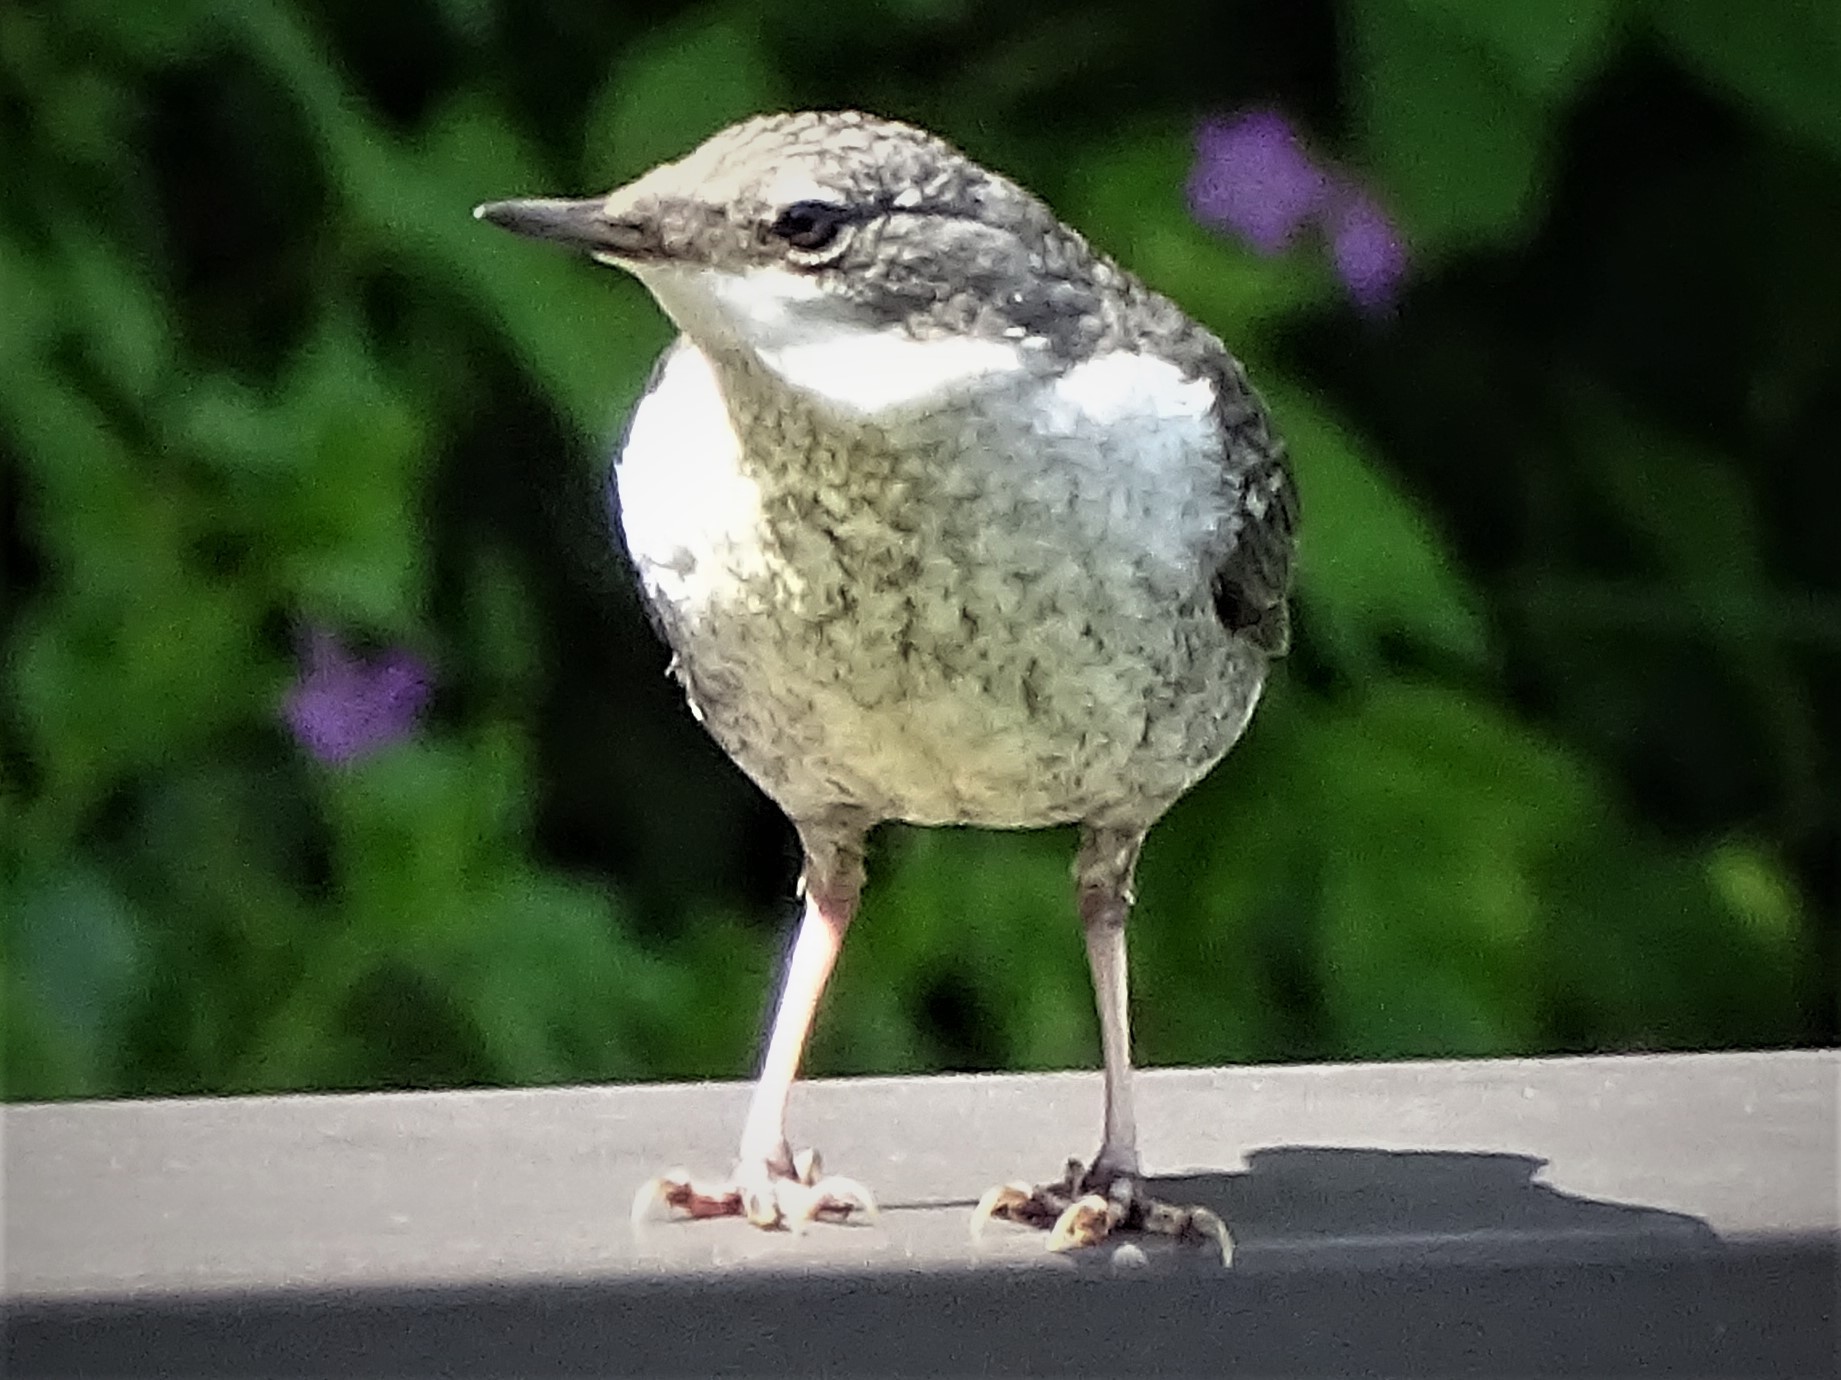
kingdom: Animalia
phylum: Chordata
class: Aves
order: Passeriformes
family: Cinclidae
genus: Cinclus
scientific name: Cinclus cinclus
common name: White-throated dipper
